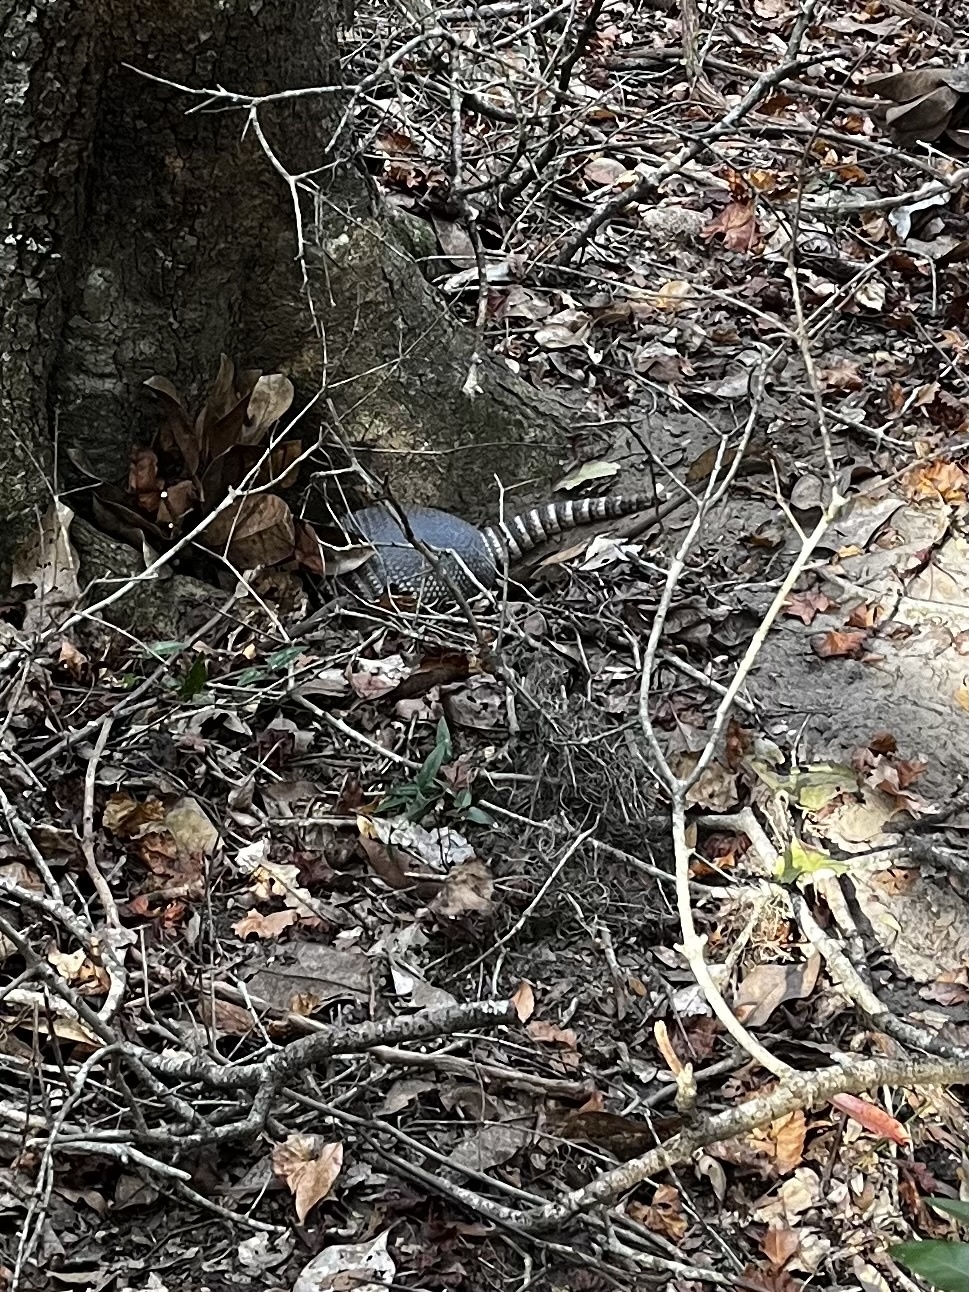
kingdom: Animalia
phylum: Chordata
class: Mammalia
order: Cingulata
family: Dasypodidae
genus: Dasypus
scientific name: Dasypus novemcinctus
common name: Nine-banded armadillo
